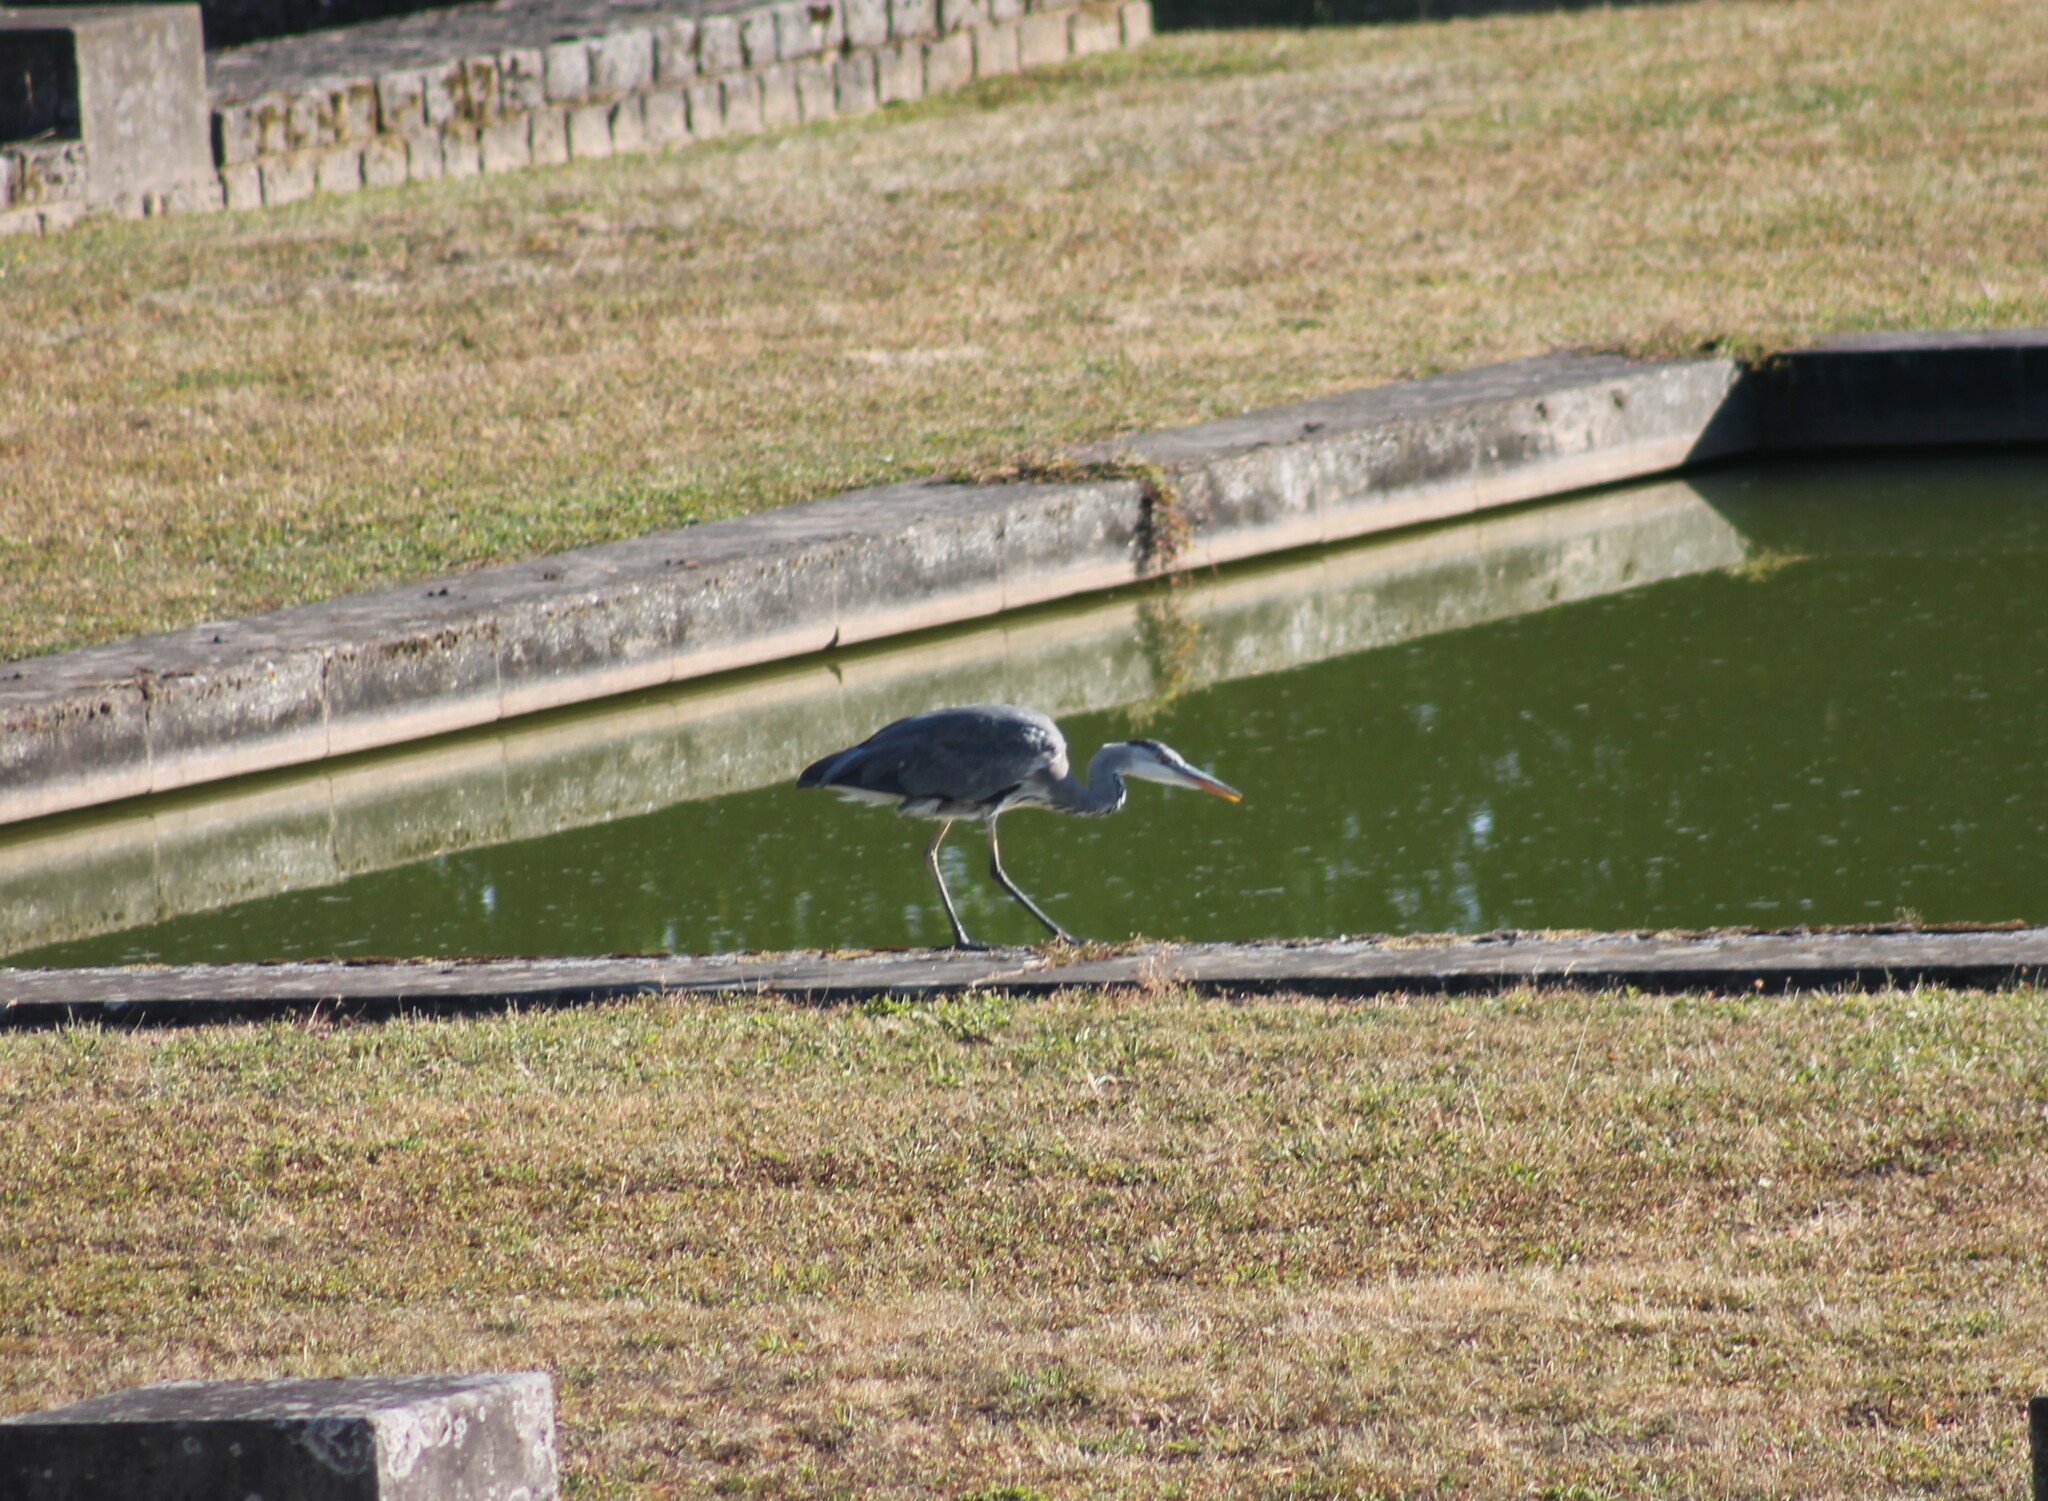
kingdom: Animalia
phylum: Chordata
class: Aves
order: Pelecaniformes
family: Ardeidae
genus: Ardea
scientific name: Ardea cinerea
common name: Grey heron
